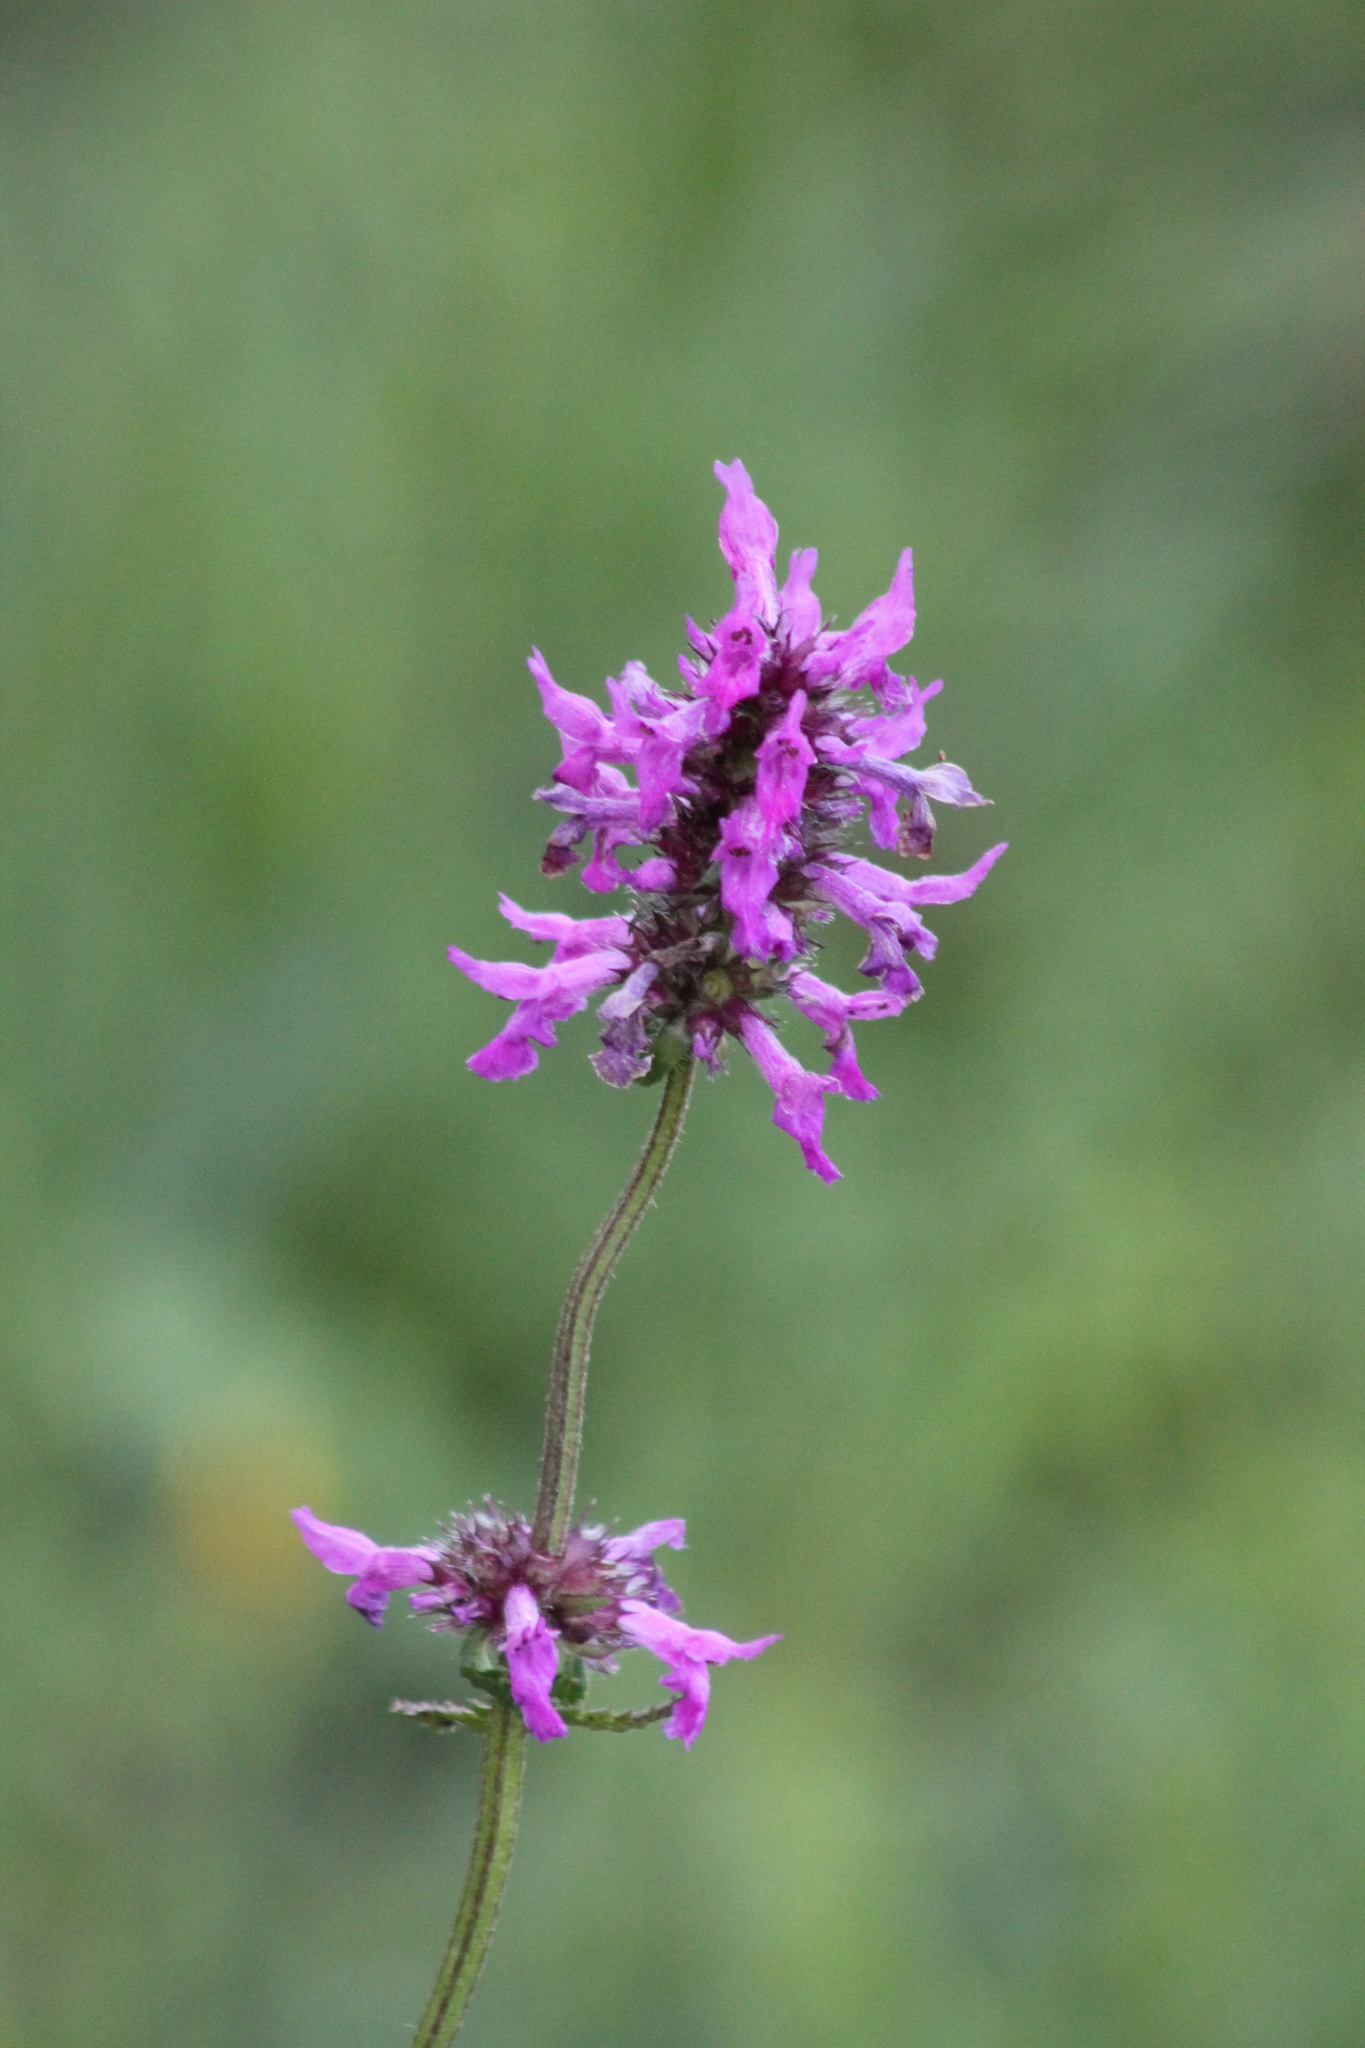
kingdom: Plantae
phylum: Tracheophyta
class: Magnoliopsida
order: Lamiales
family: Lamiaceae
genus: Betonica
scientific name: Betonica officinalis
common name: Bishop's-wort
